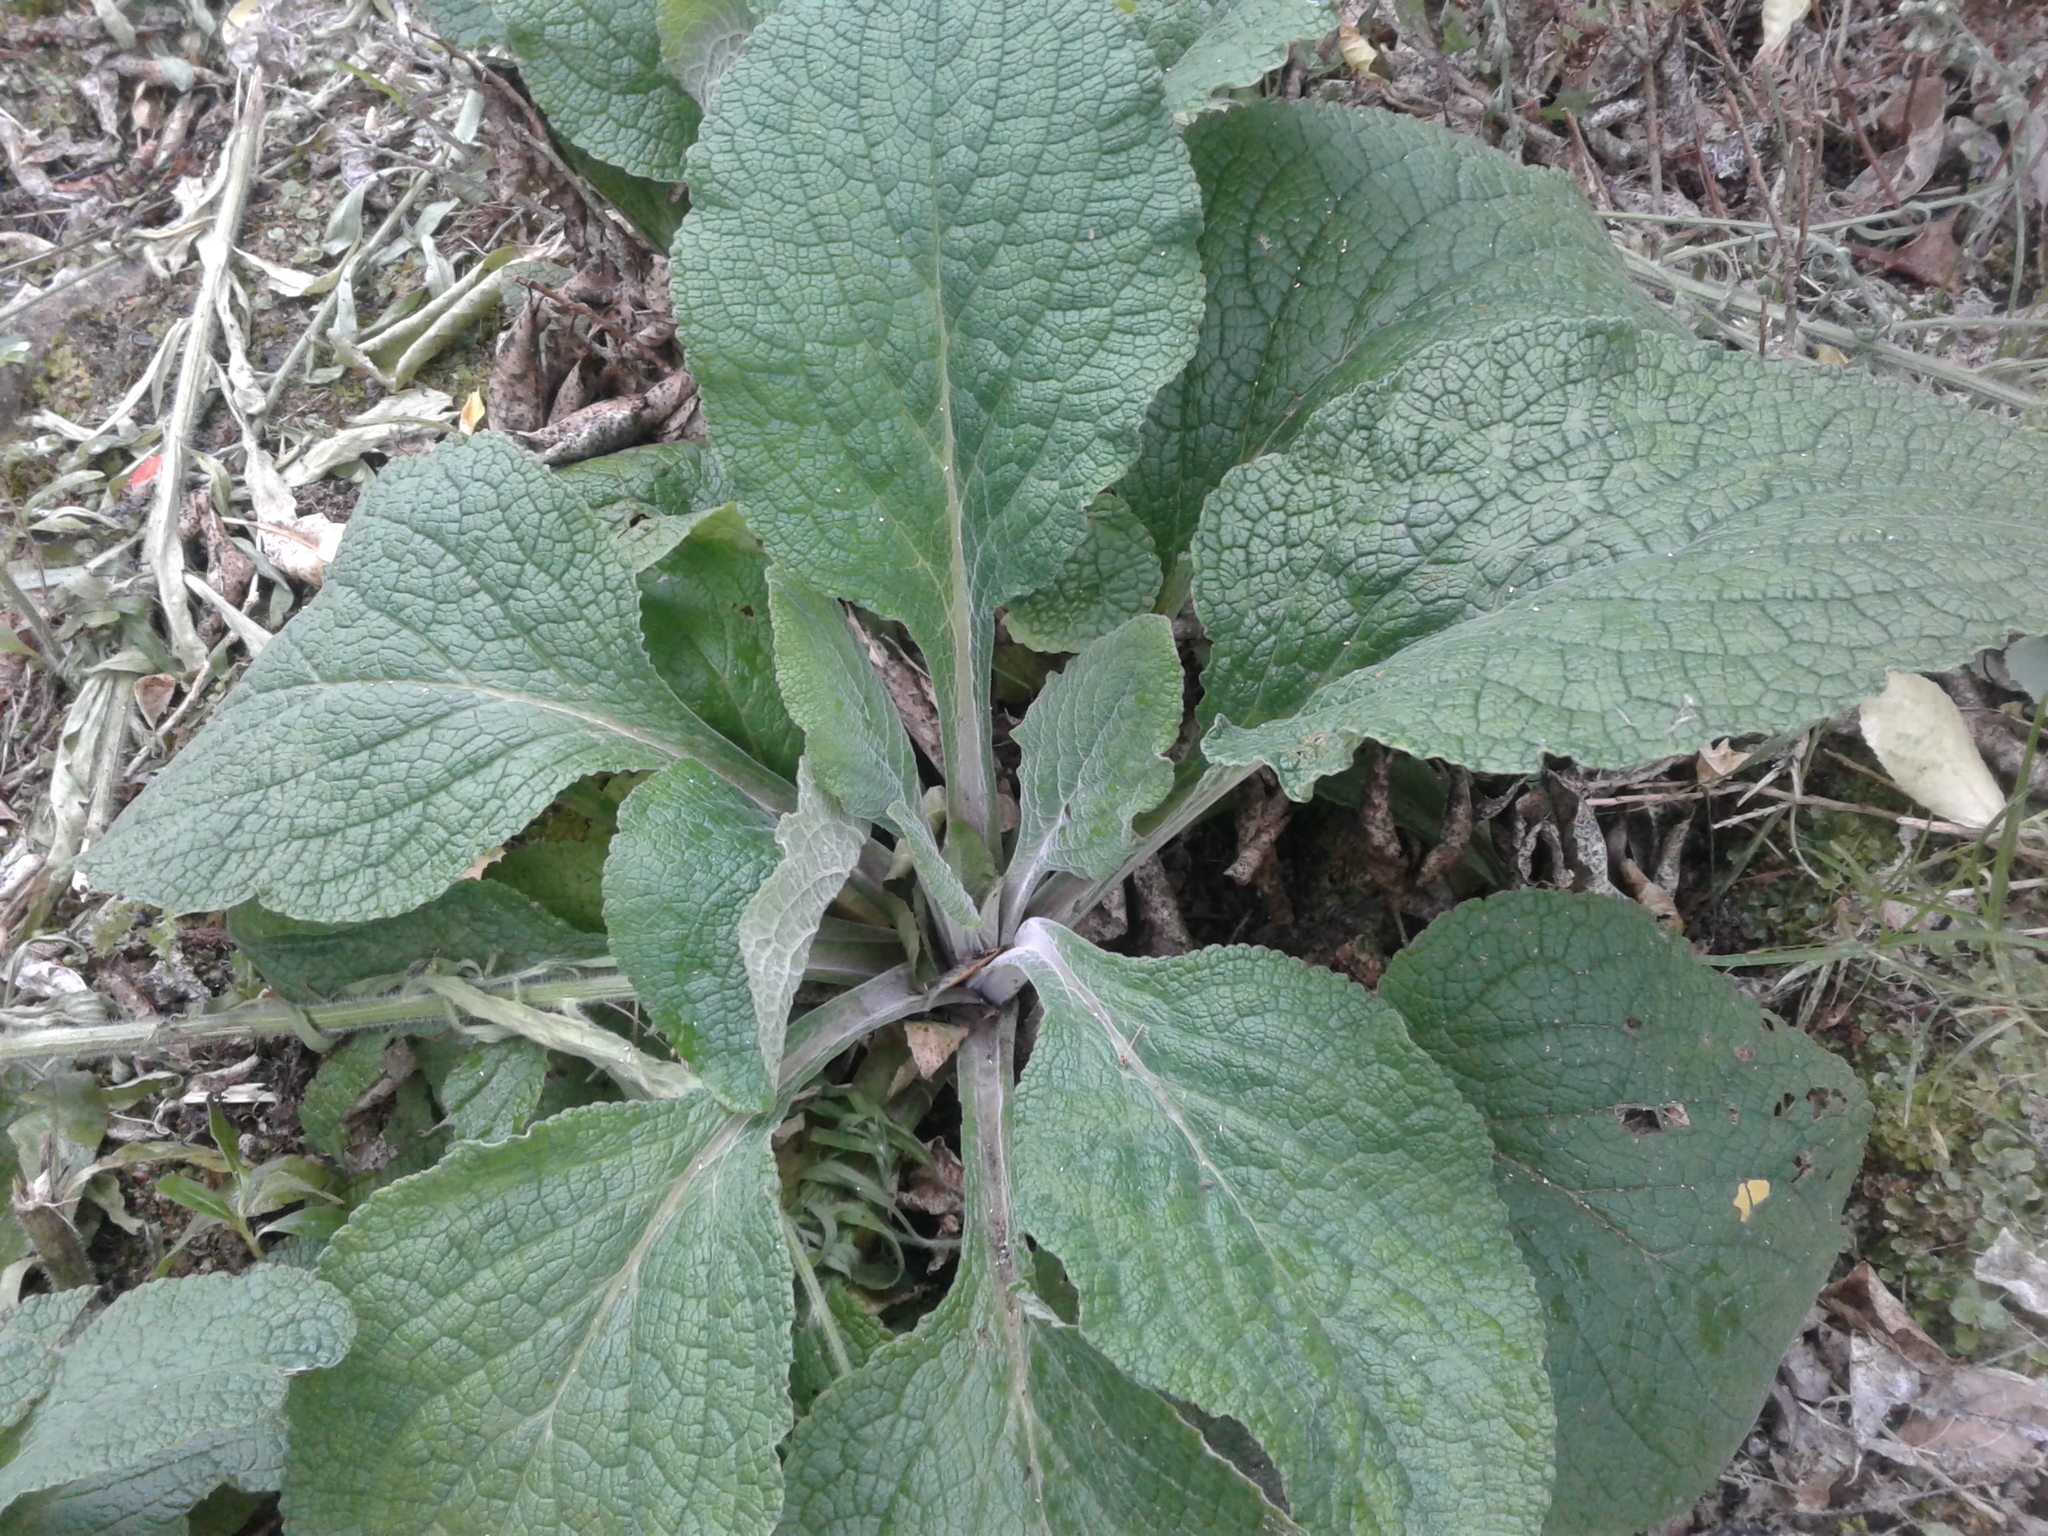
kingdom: Plantae
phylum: Tracheophyta
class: Magnoliopsida
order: Lamiales
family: Plantaginaceae
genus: Digitalis
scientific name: Digitalis purpurea
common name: Foxglove
